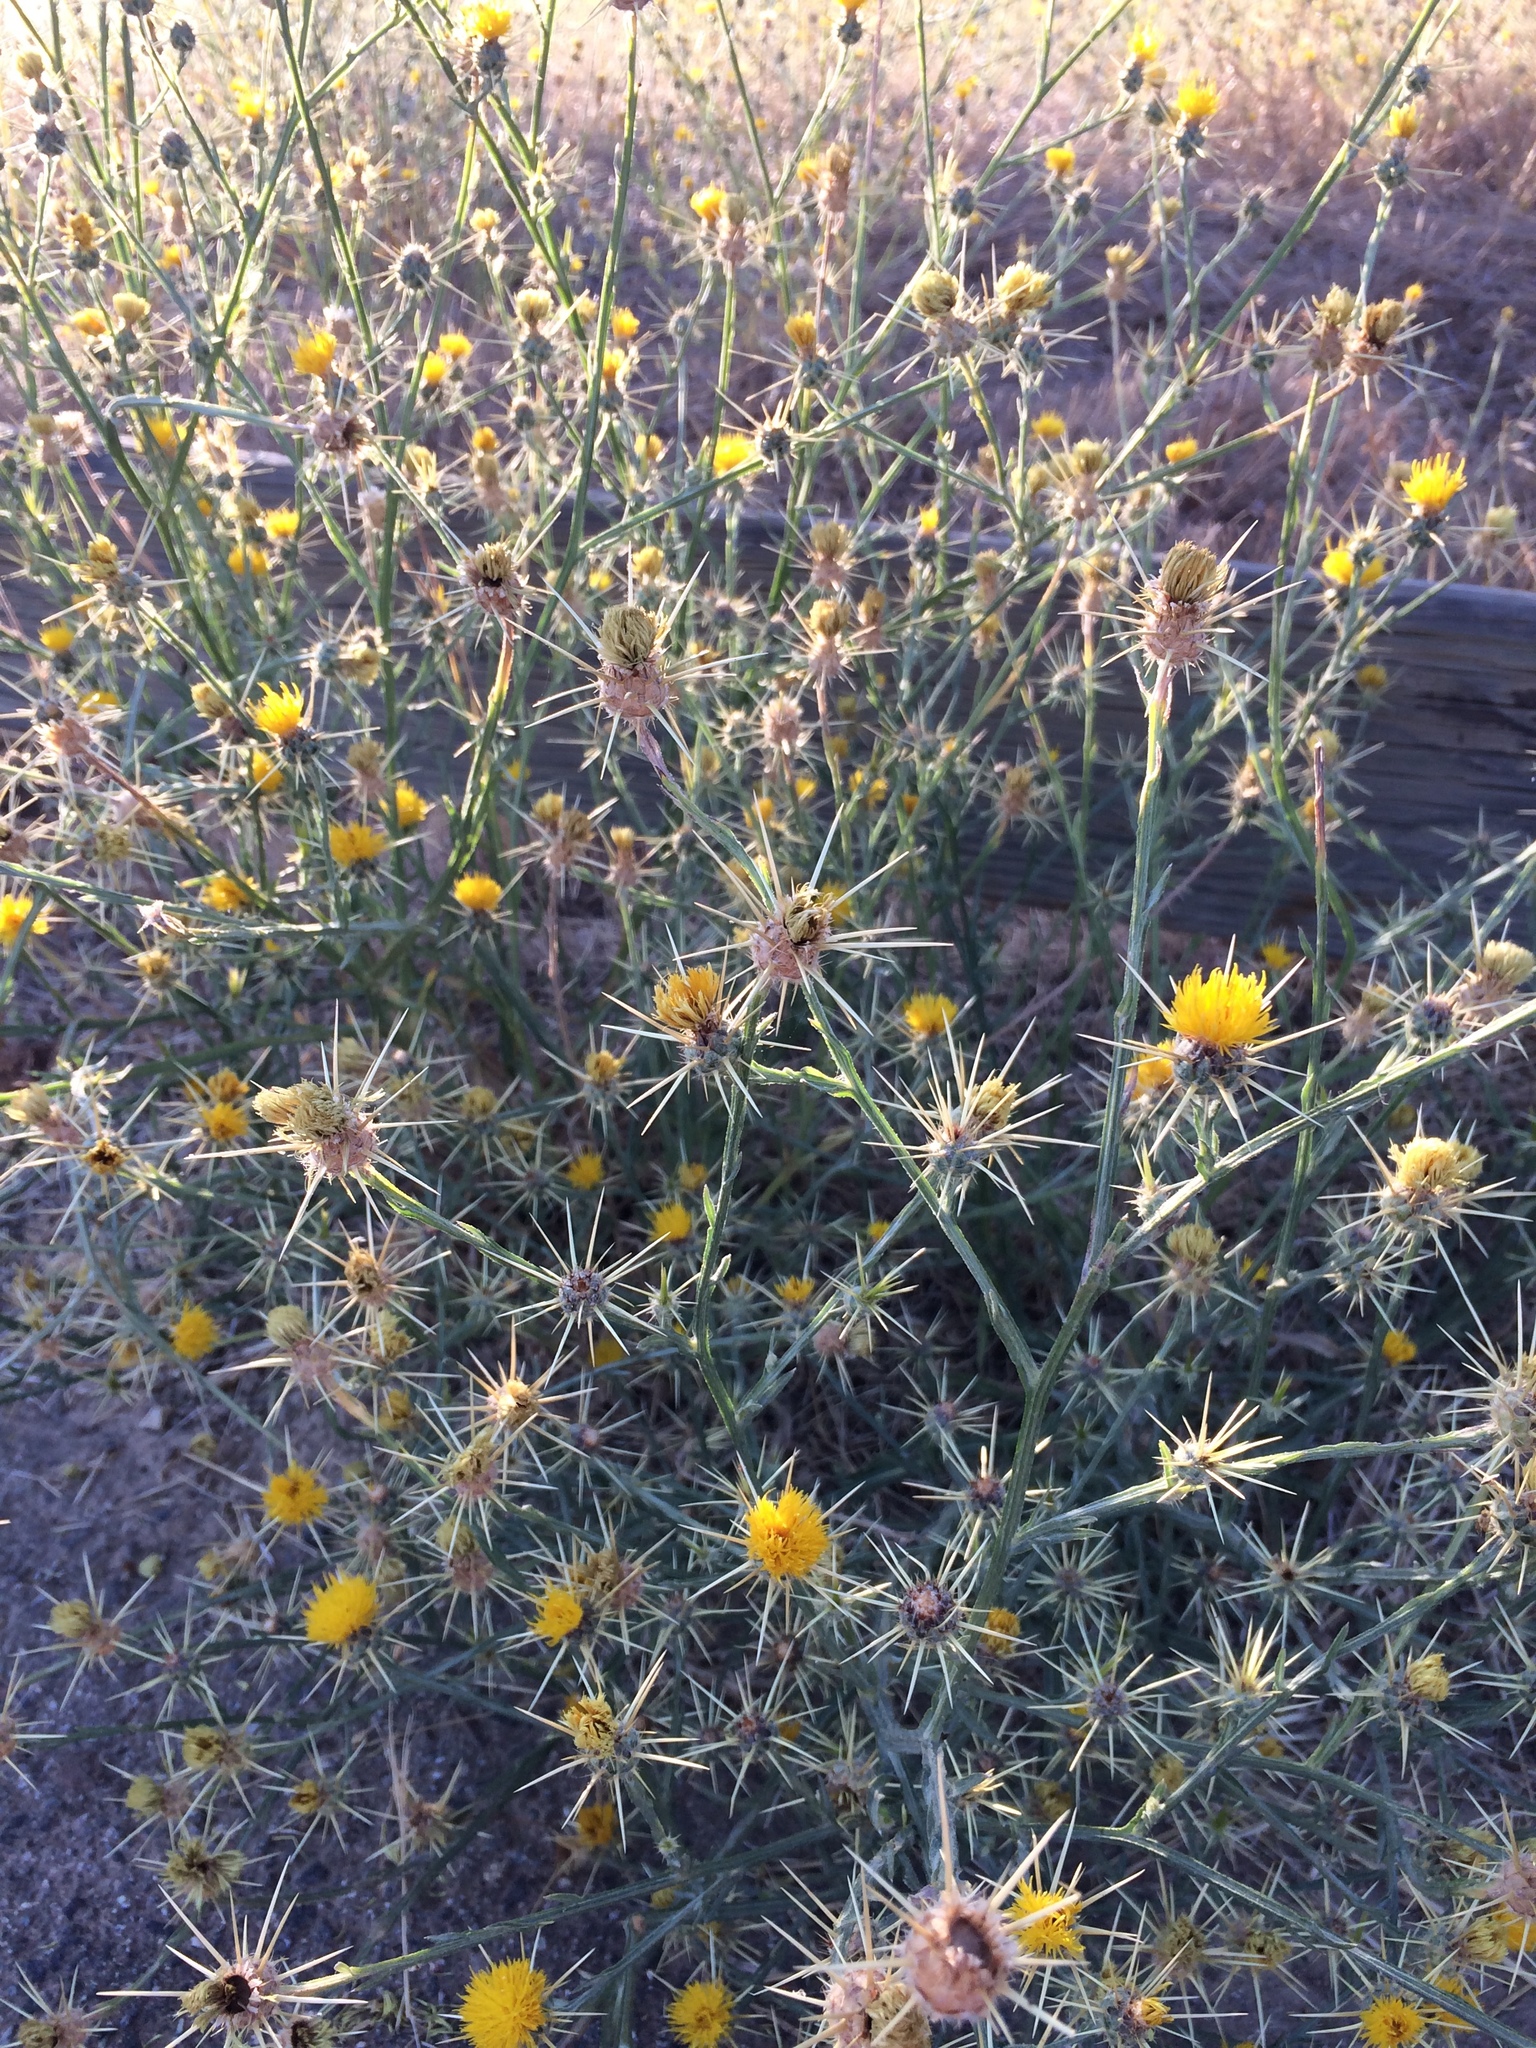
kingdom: Plantae
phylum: Tracheophyta
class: Magnoliopsida
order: Asterales
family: Asteraceae
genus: Centaurea
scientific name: Centaurea solstitialis
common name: Yellow star-thistle
